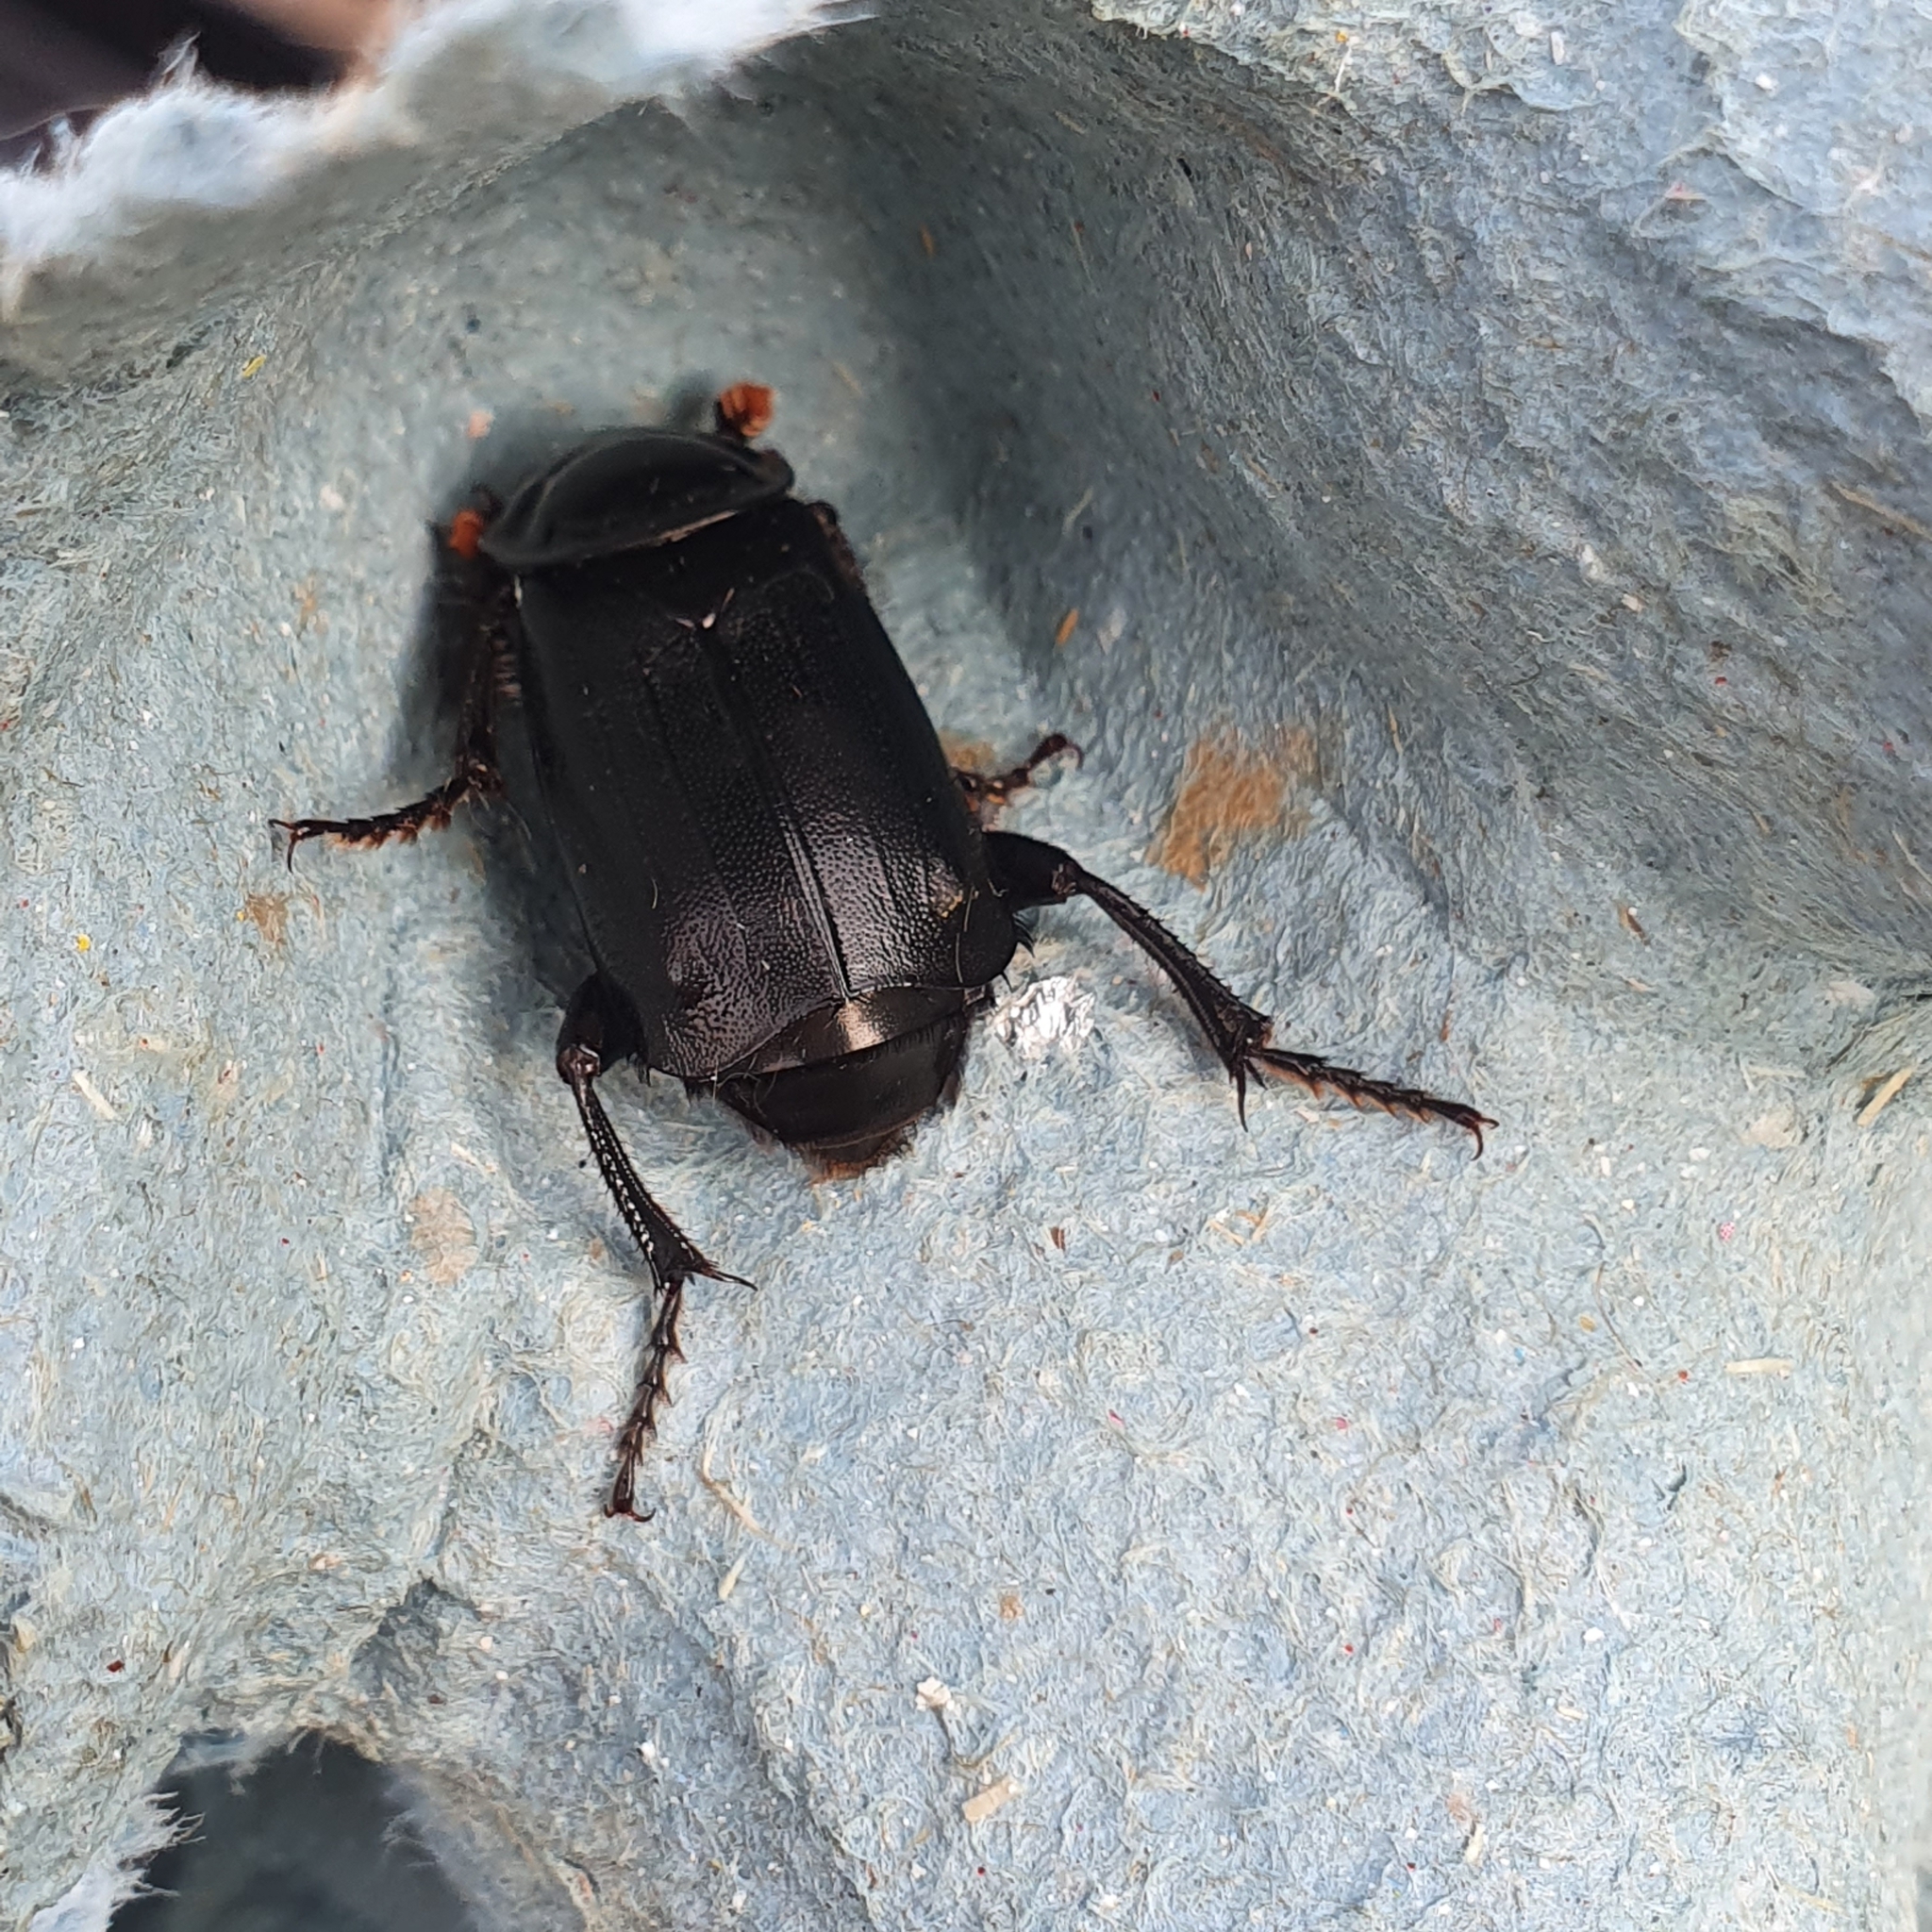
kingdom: Animalia
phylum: Arthropoda
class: Insecta
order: Coleoptera
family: Staphylinidae
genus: Nicrophorus
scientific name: Nicrophorus humator
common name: Black sexton beetle
